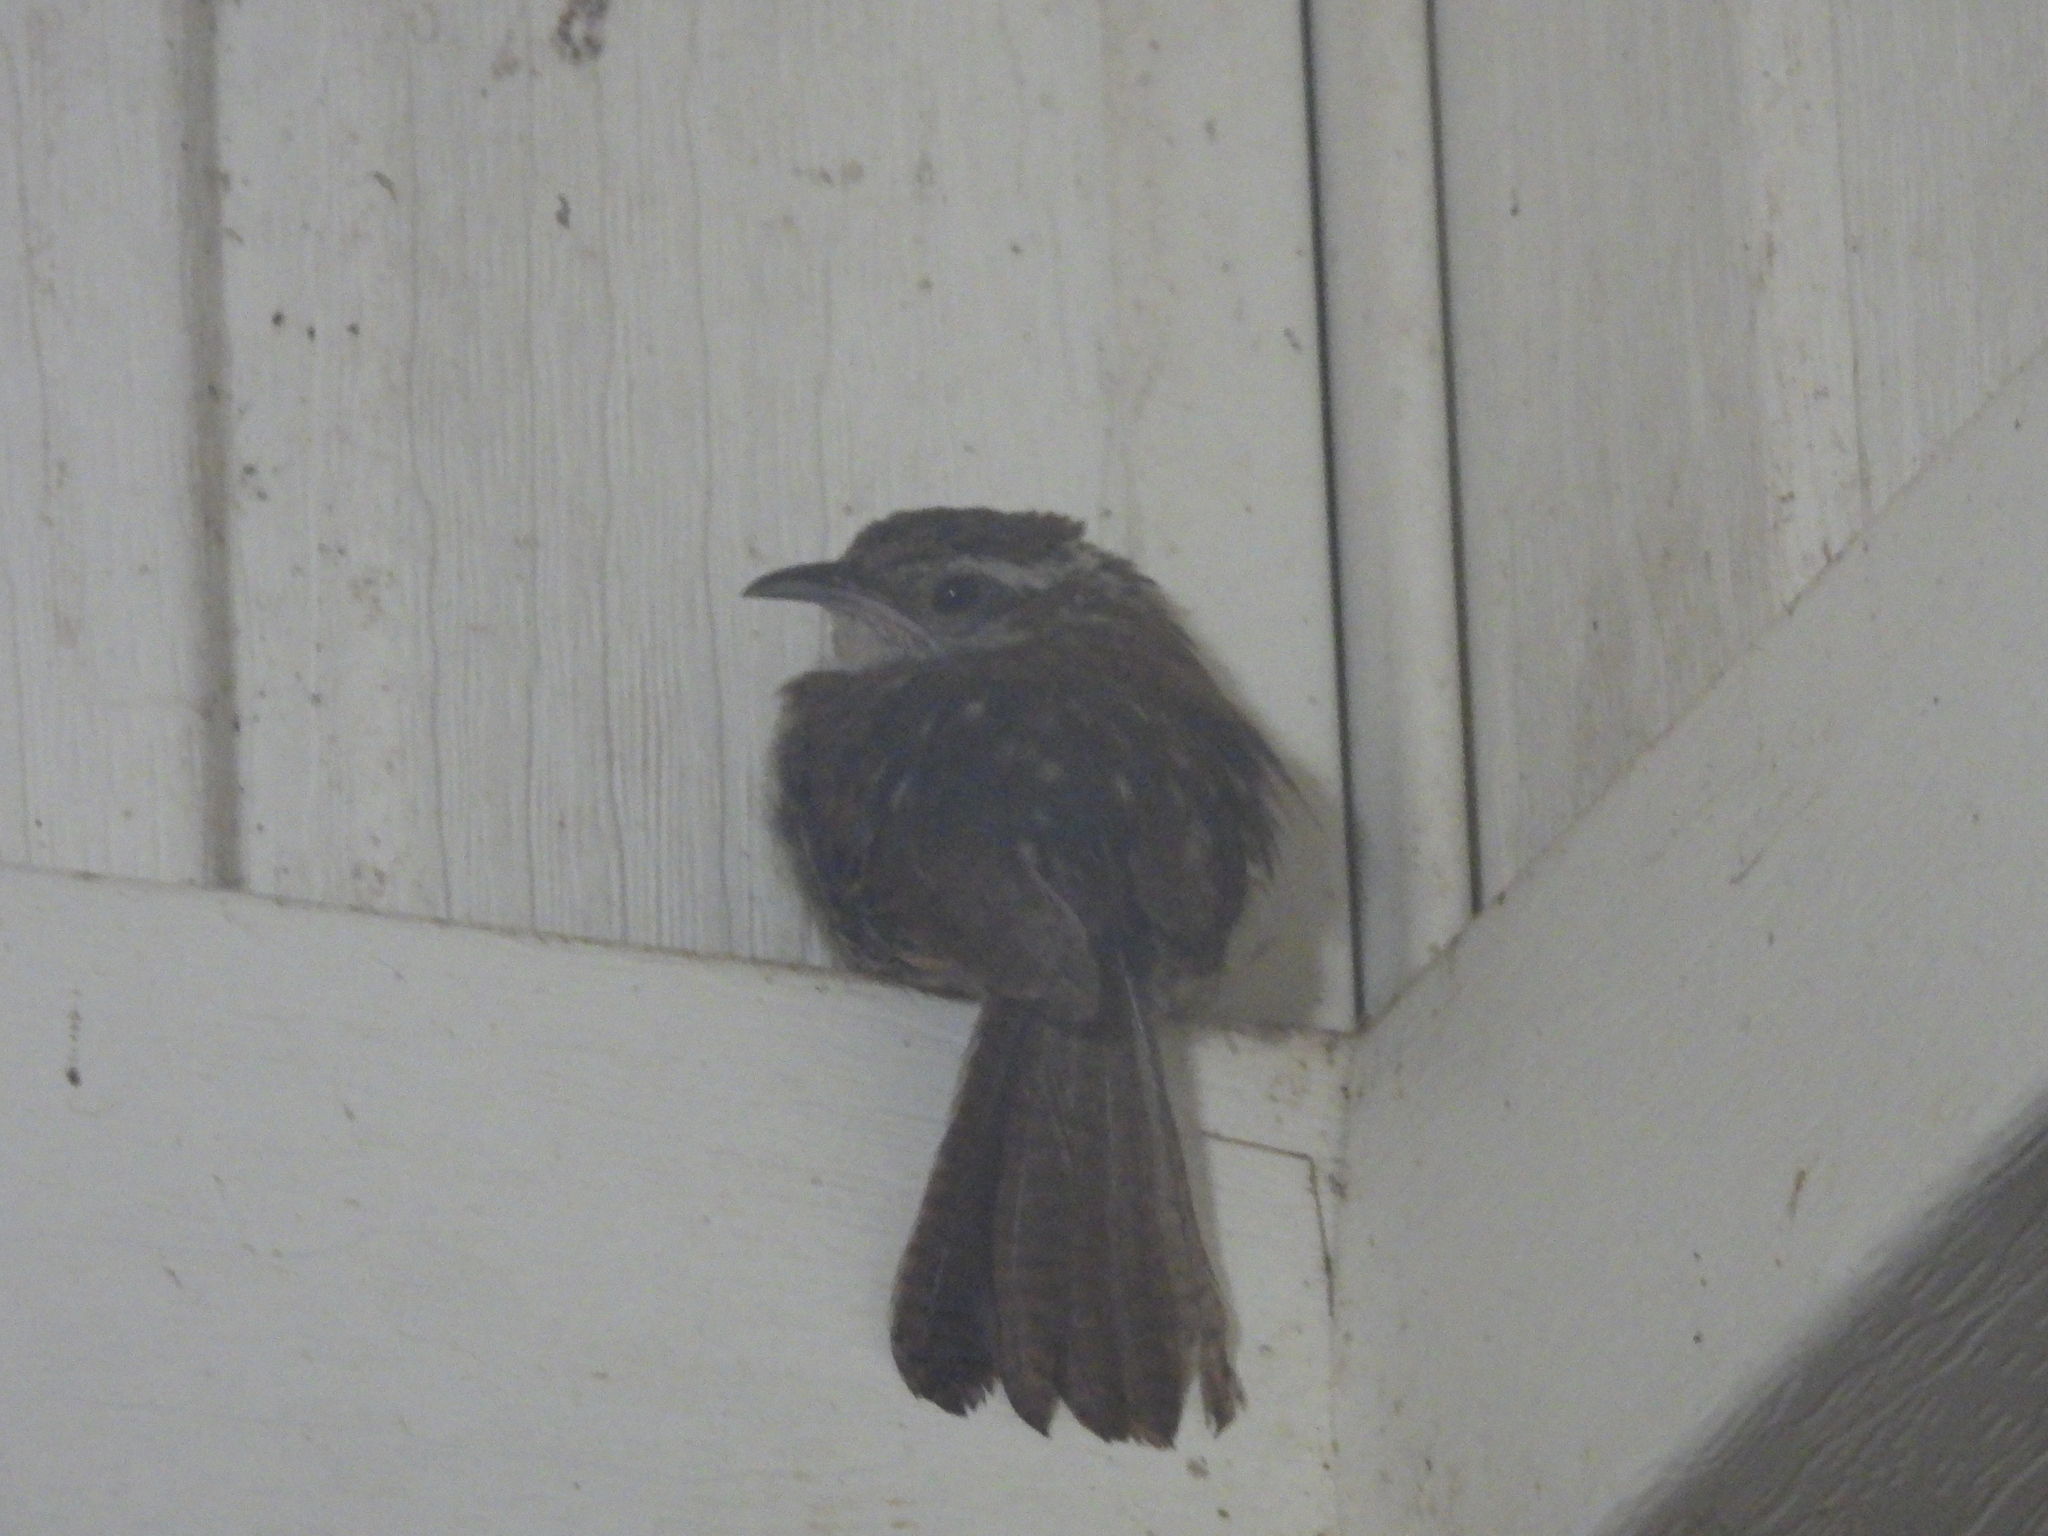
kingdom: Animalia
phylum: Chordata
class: Aves
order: Passeriformes
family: Troglodytidae
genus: Thryothorus
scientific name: Thryothorus ludovicianus
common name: Carolina wren
